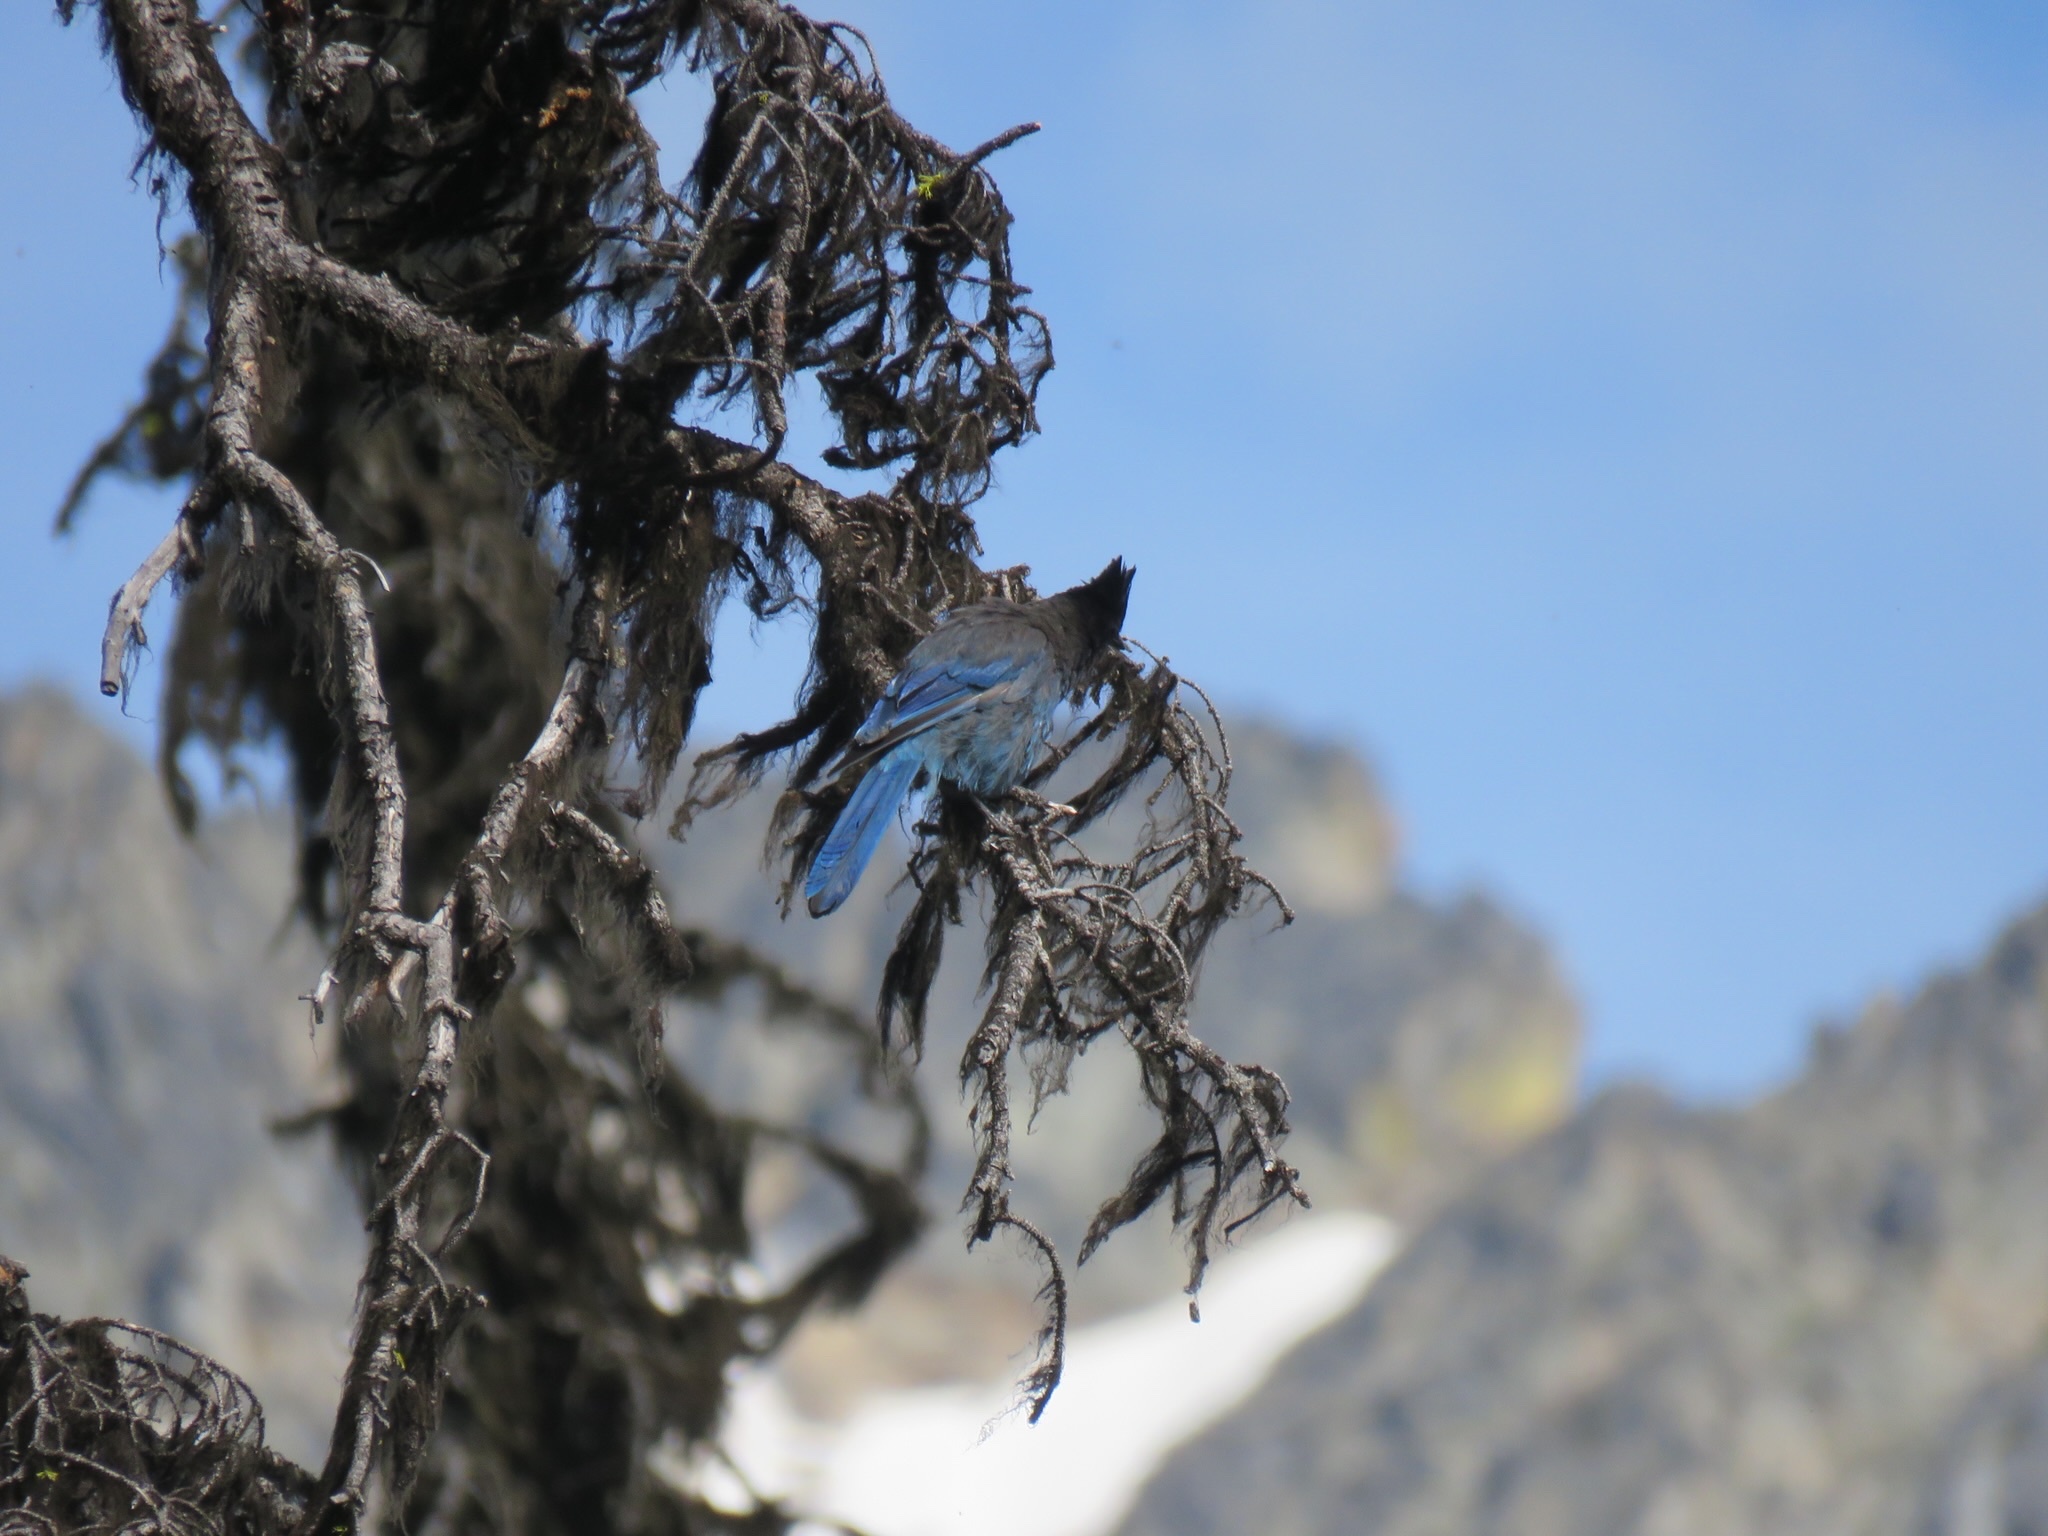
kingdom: Animalia
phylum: Chordata
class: Aves
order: Passeriformes
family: Corvidae
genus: Cyanocitta
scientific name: Cyanocitta stelleri
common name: Steller's jay
